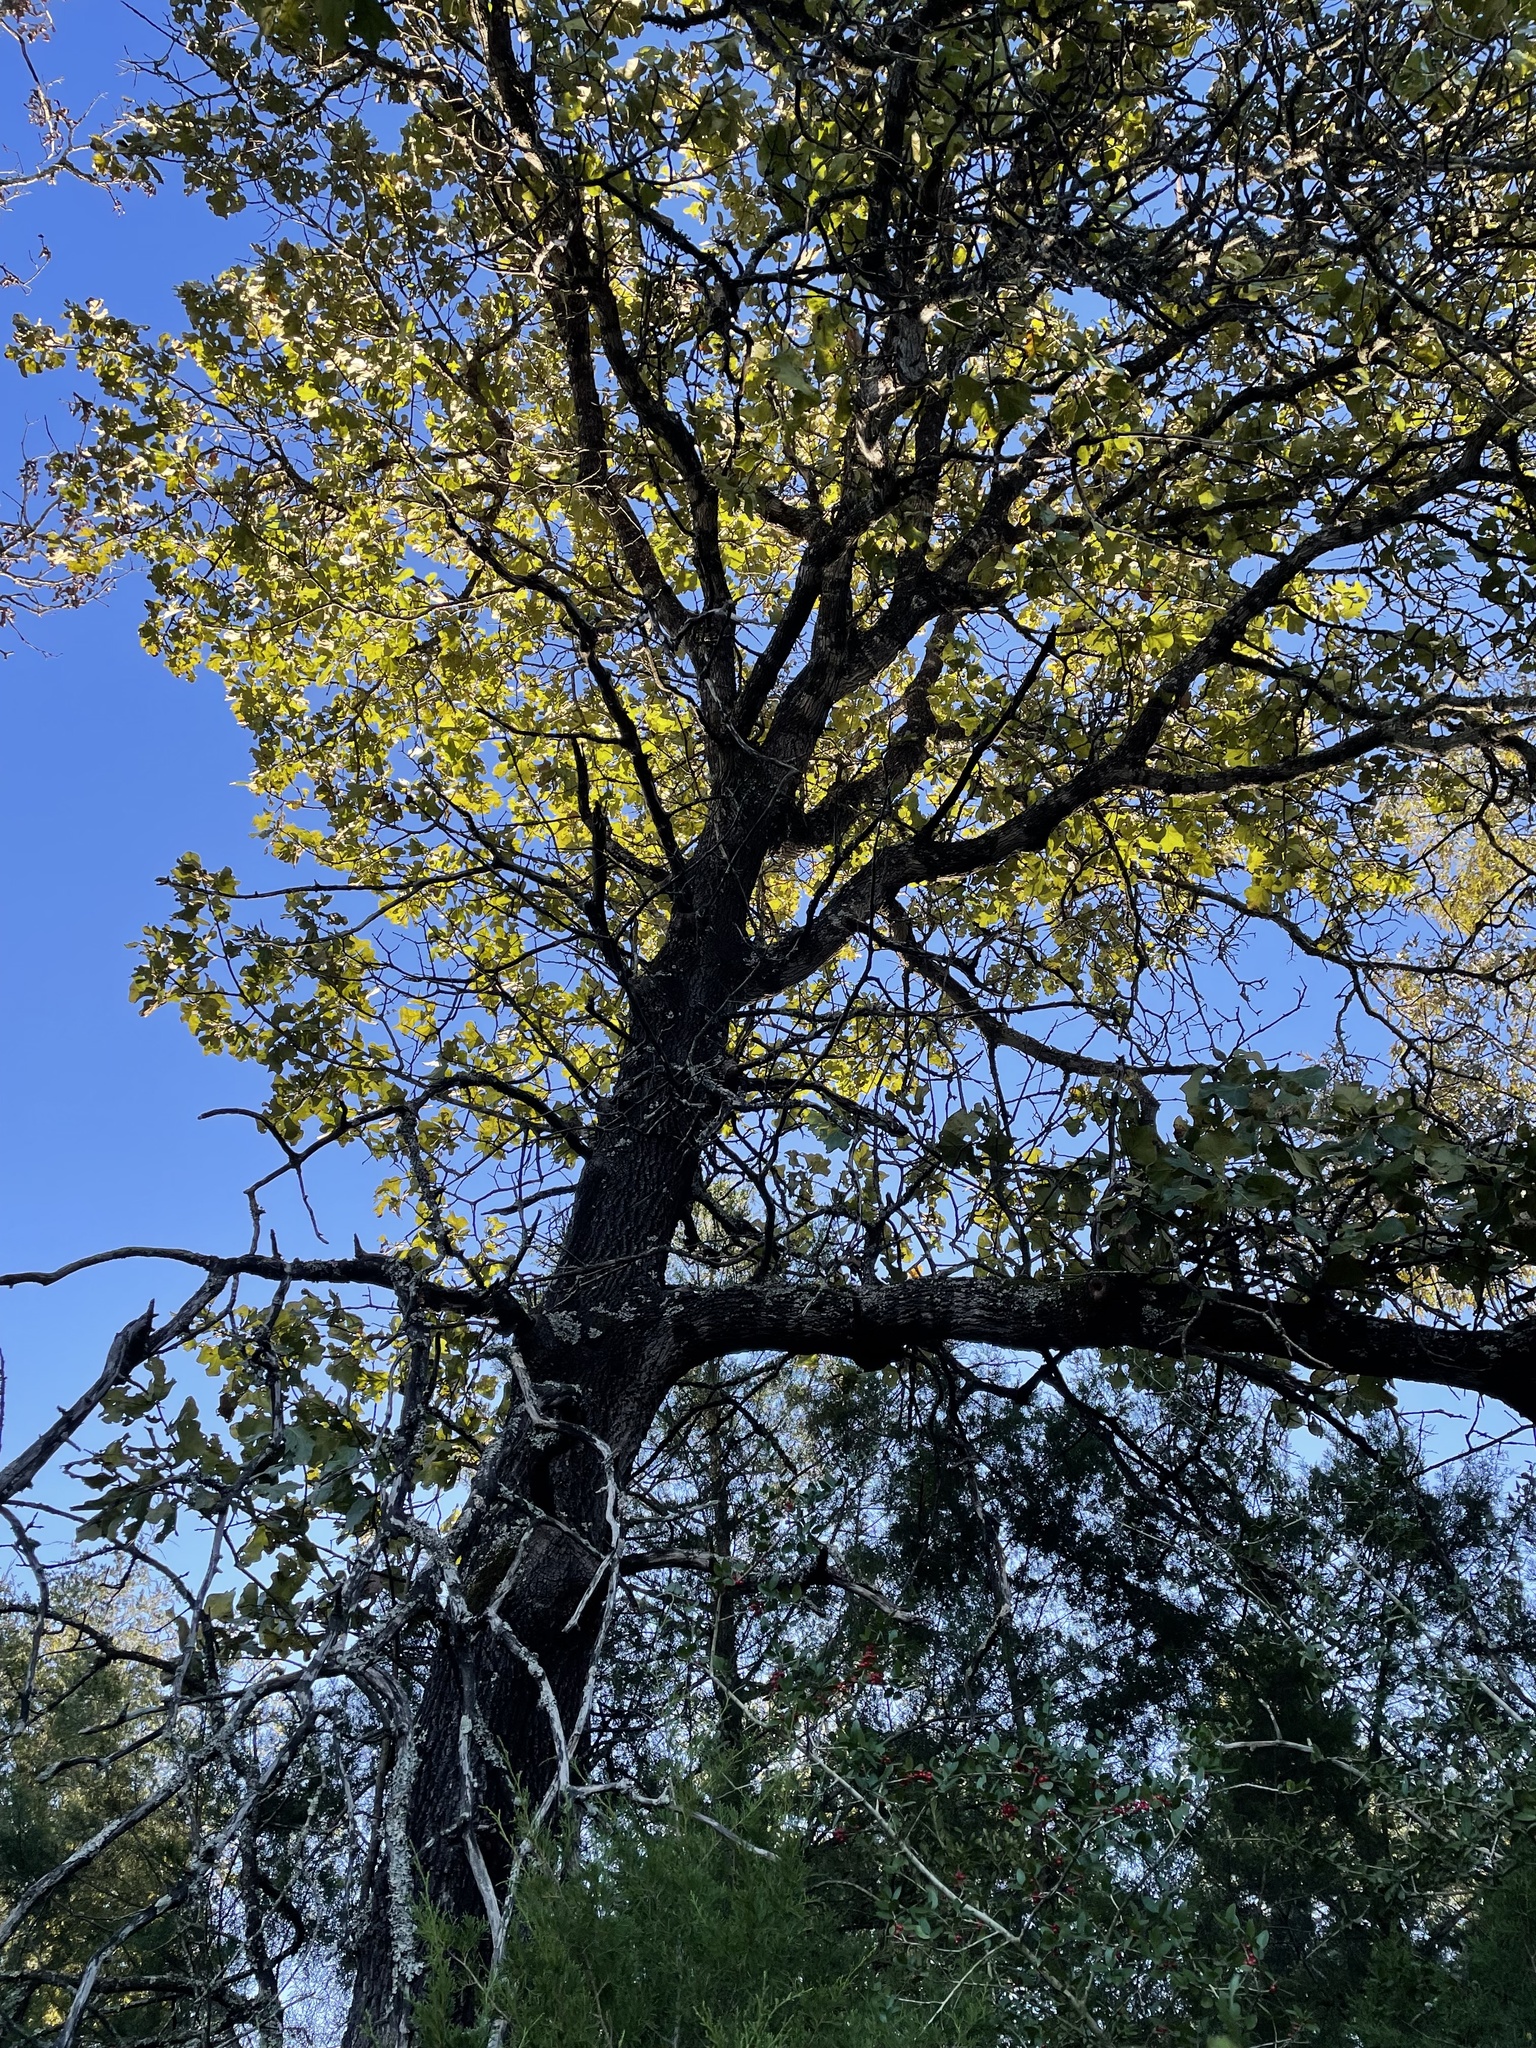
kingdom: Plantae
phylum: Tracheophyta
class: Magnoliopsida
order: Fagales
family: Fagaceae
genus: Quercus
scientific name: Quercus marilandica
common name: Blackjack oak
